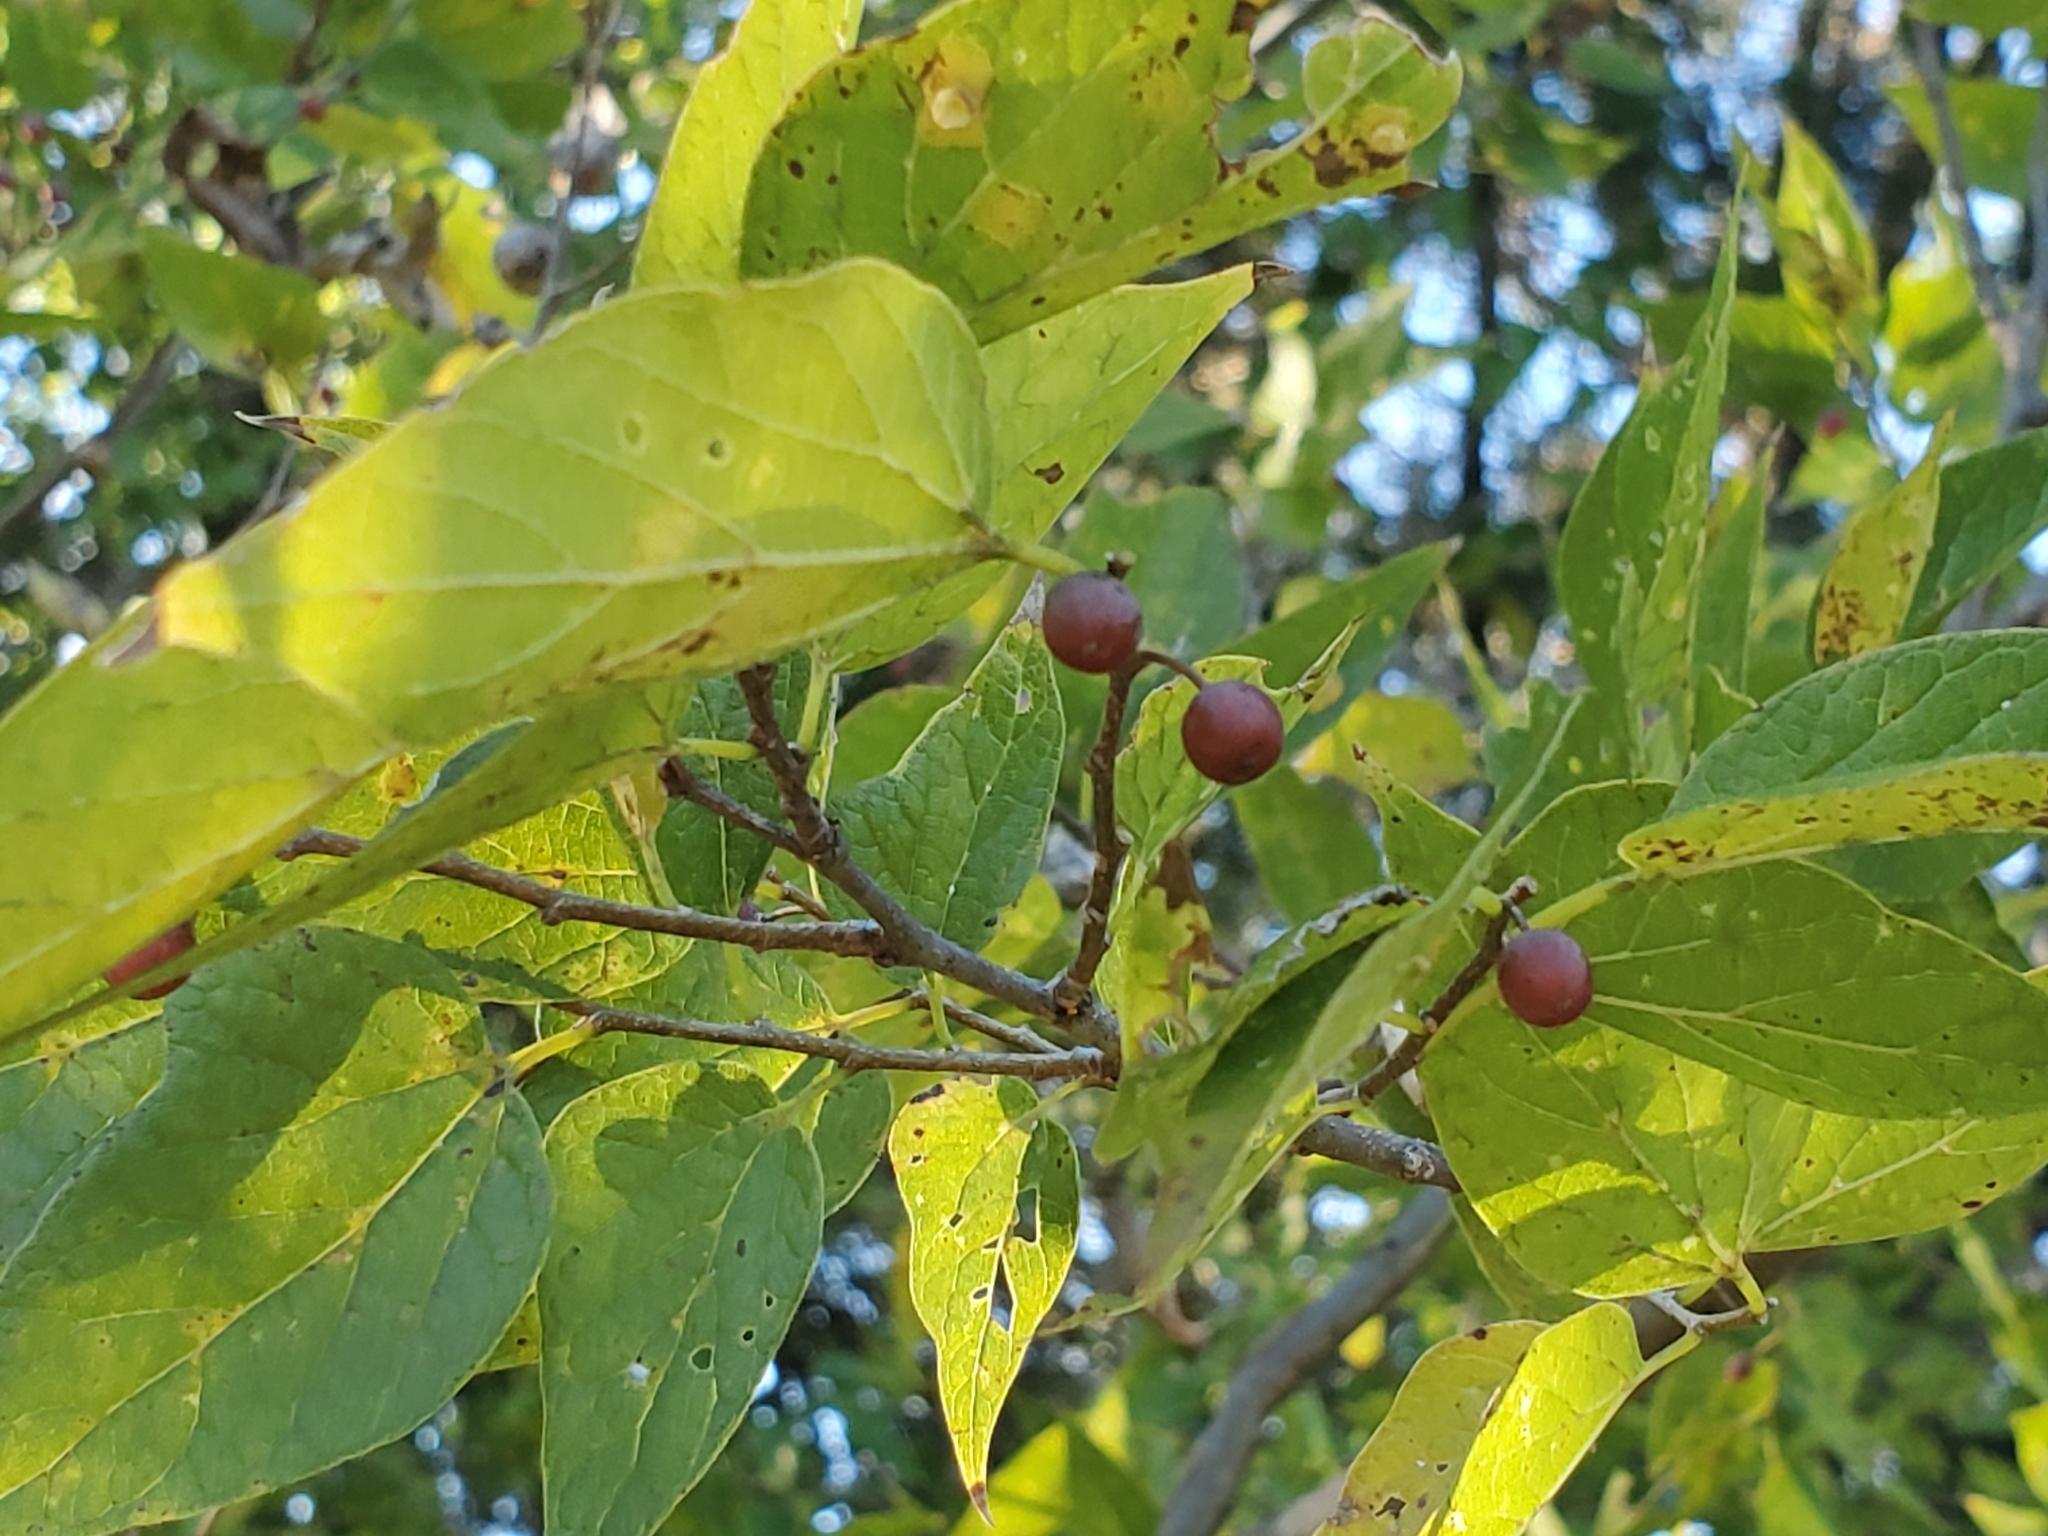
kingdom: Plantae
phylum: Tracheophyta
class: Magnoliopsida
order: Rosales
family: Cannabaceae
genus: Celtis
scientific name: Celtis laevigata
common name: Sugarberry
